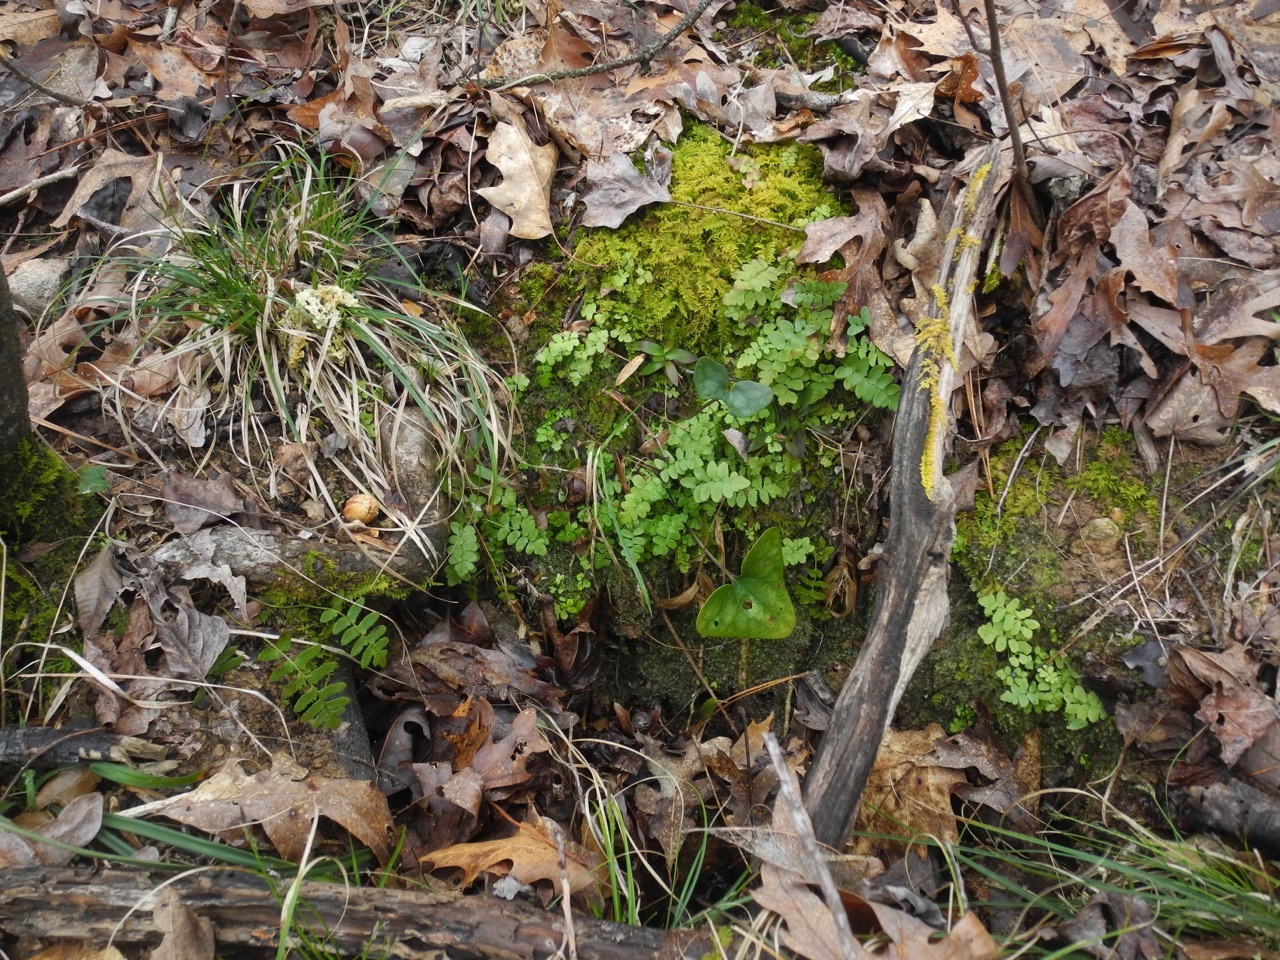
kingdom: Plantae
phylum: Tracheophyta
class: Magnoliopsida
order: Piperales
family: Aristolochiaceae
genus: Hexastylis
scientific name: Hexastylis arifolia
